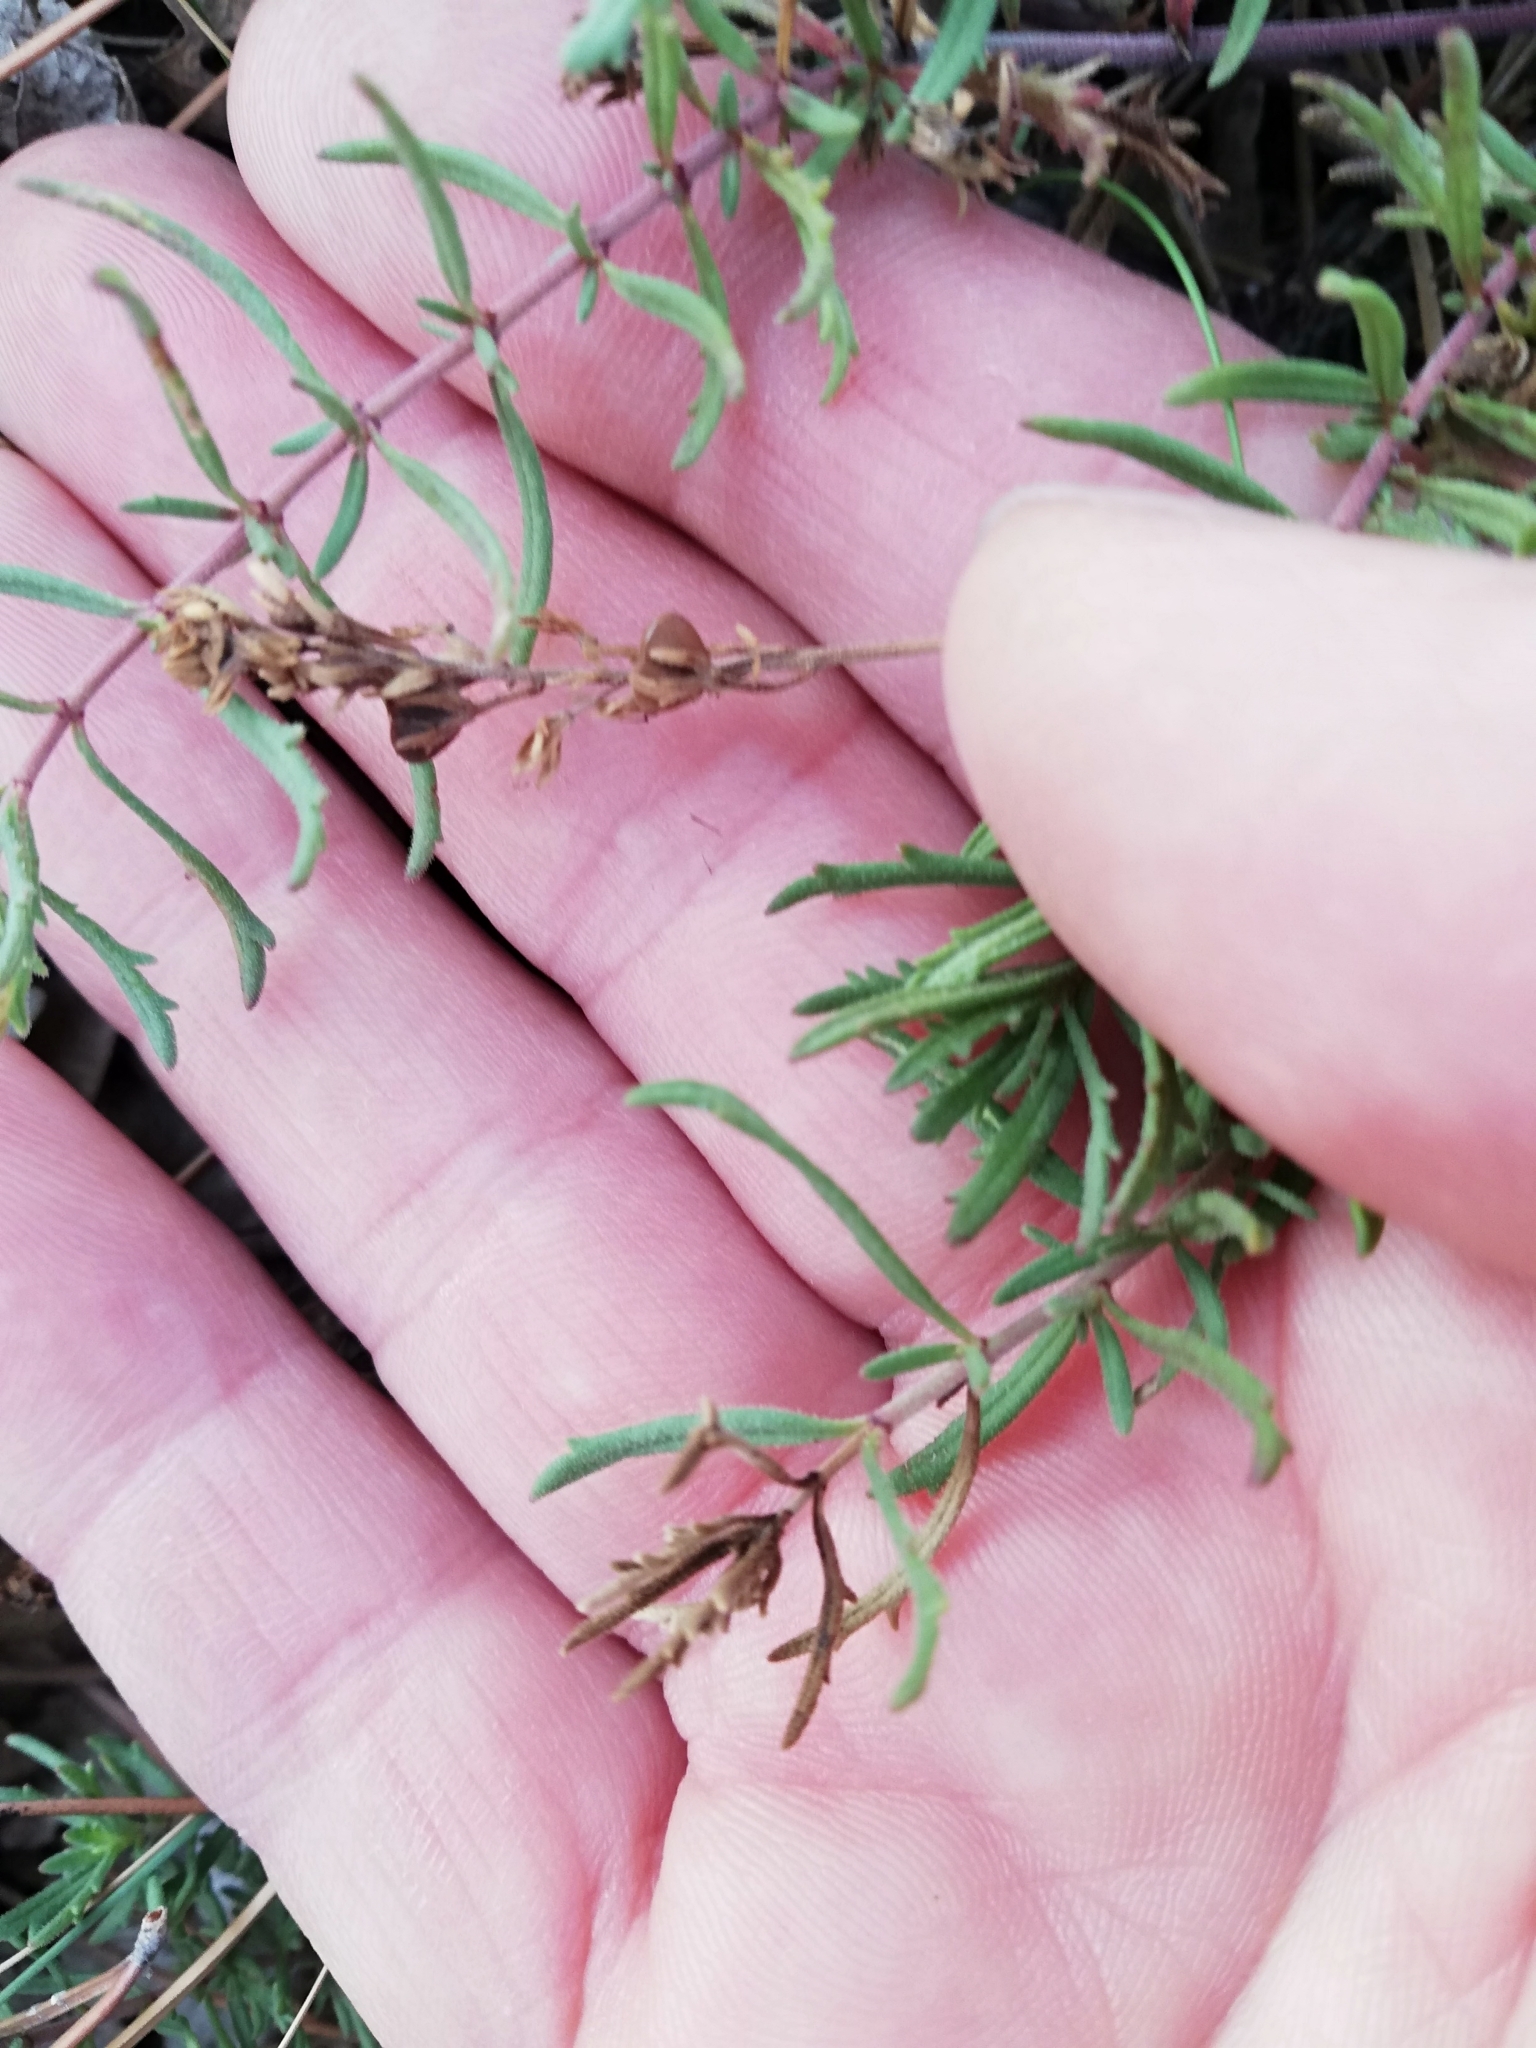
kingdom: Plantae
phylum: Tracheophyta
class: Magnoliopsida
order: Lamiales
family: Plantaginaceae
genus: Veronica
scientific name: Veronica taurica
